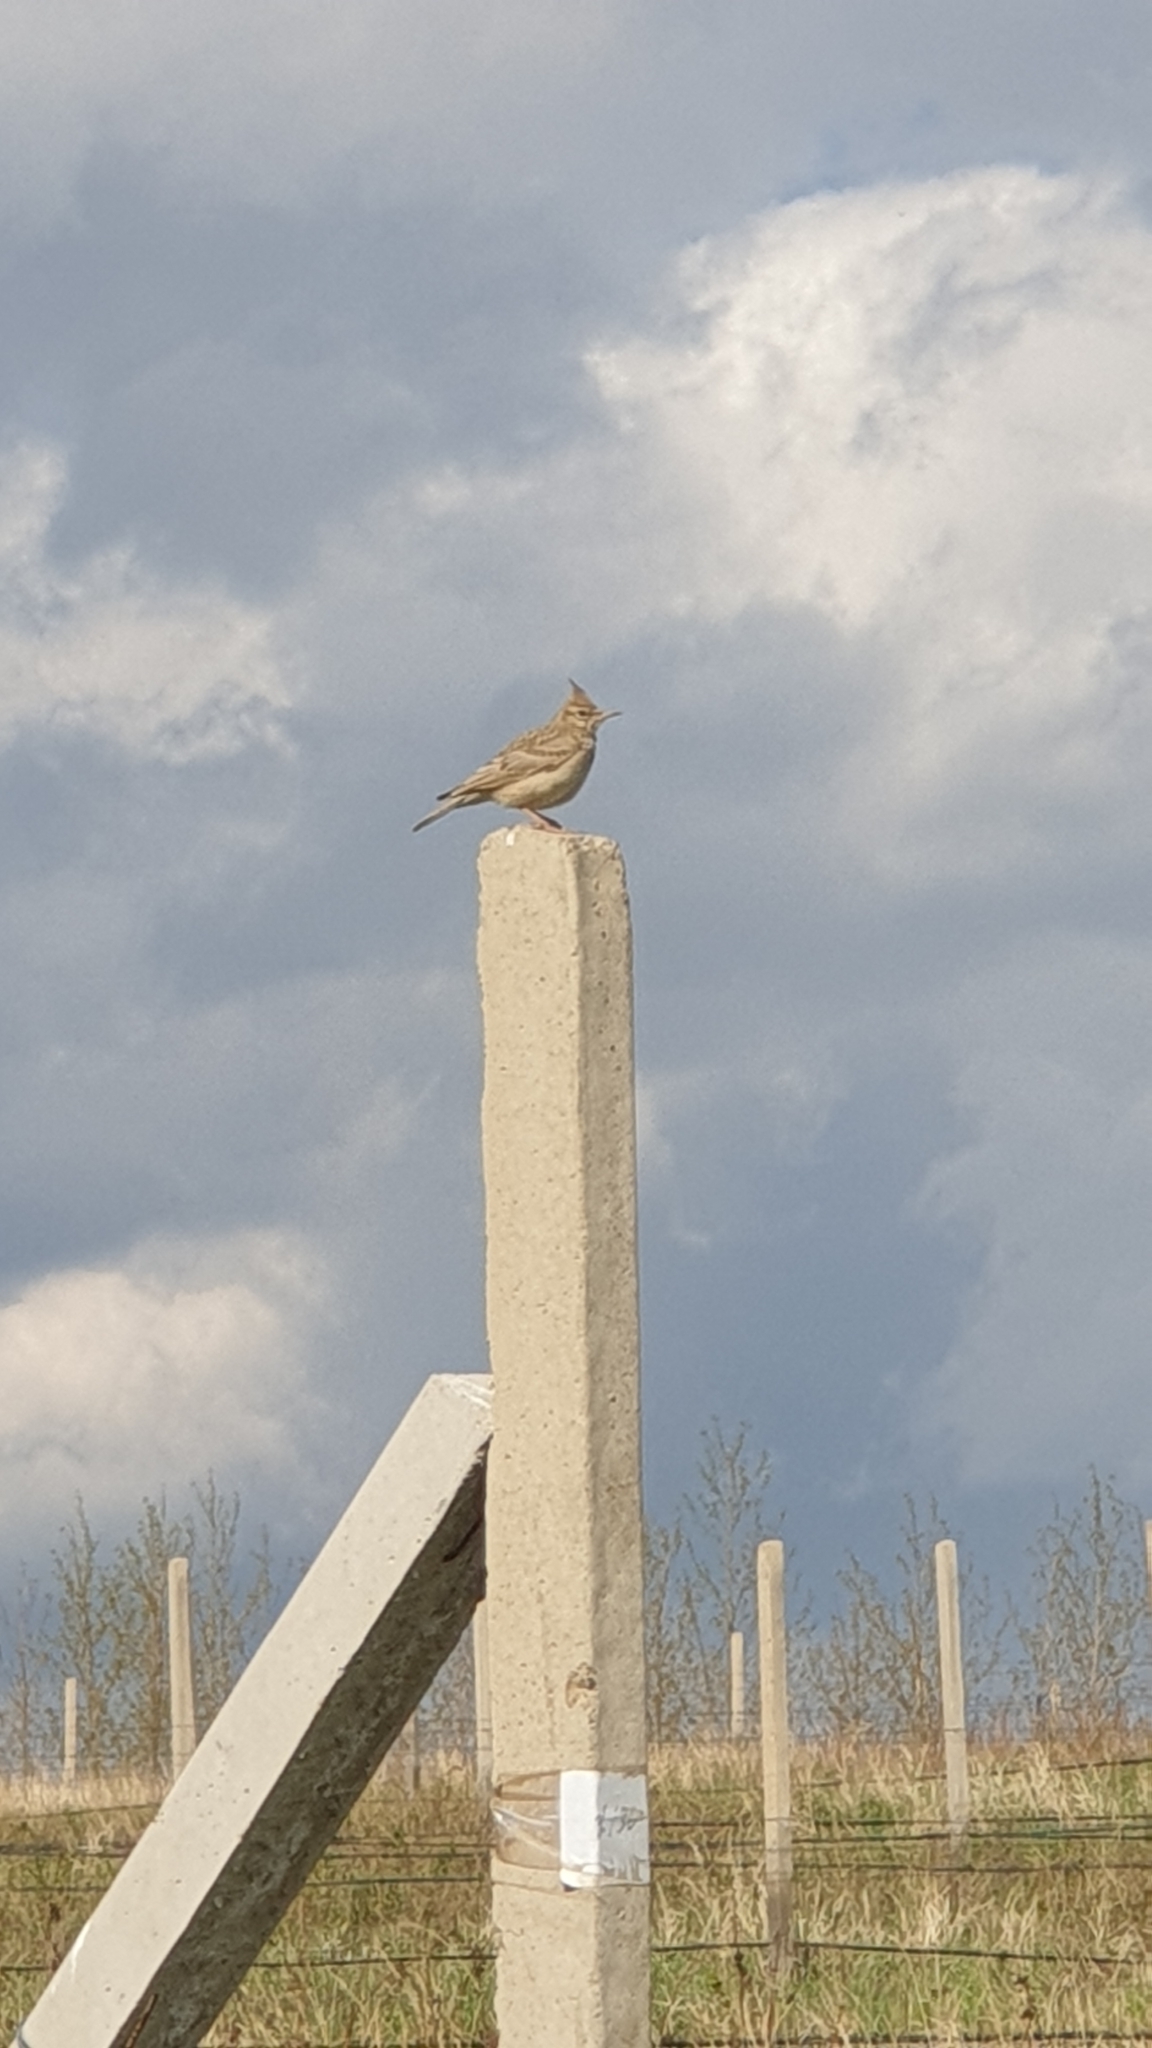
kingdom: Animalia
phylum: Chordata
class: Aves
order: Passeriformes
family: Alaudidae
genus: Galerida
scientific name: Galerida cristata
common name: Crested lark
